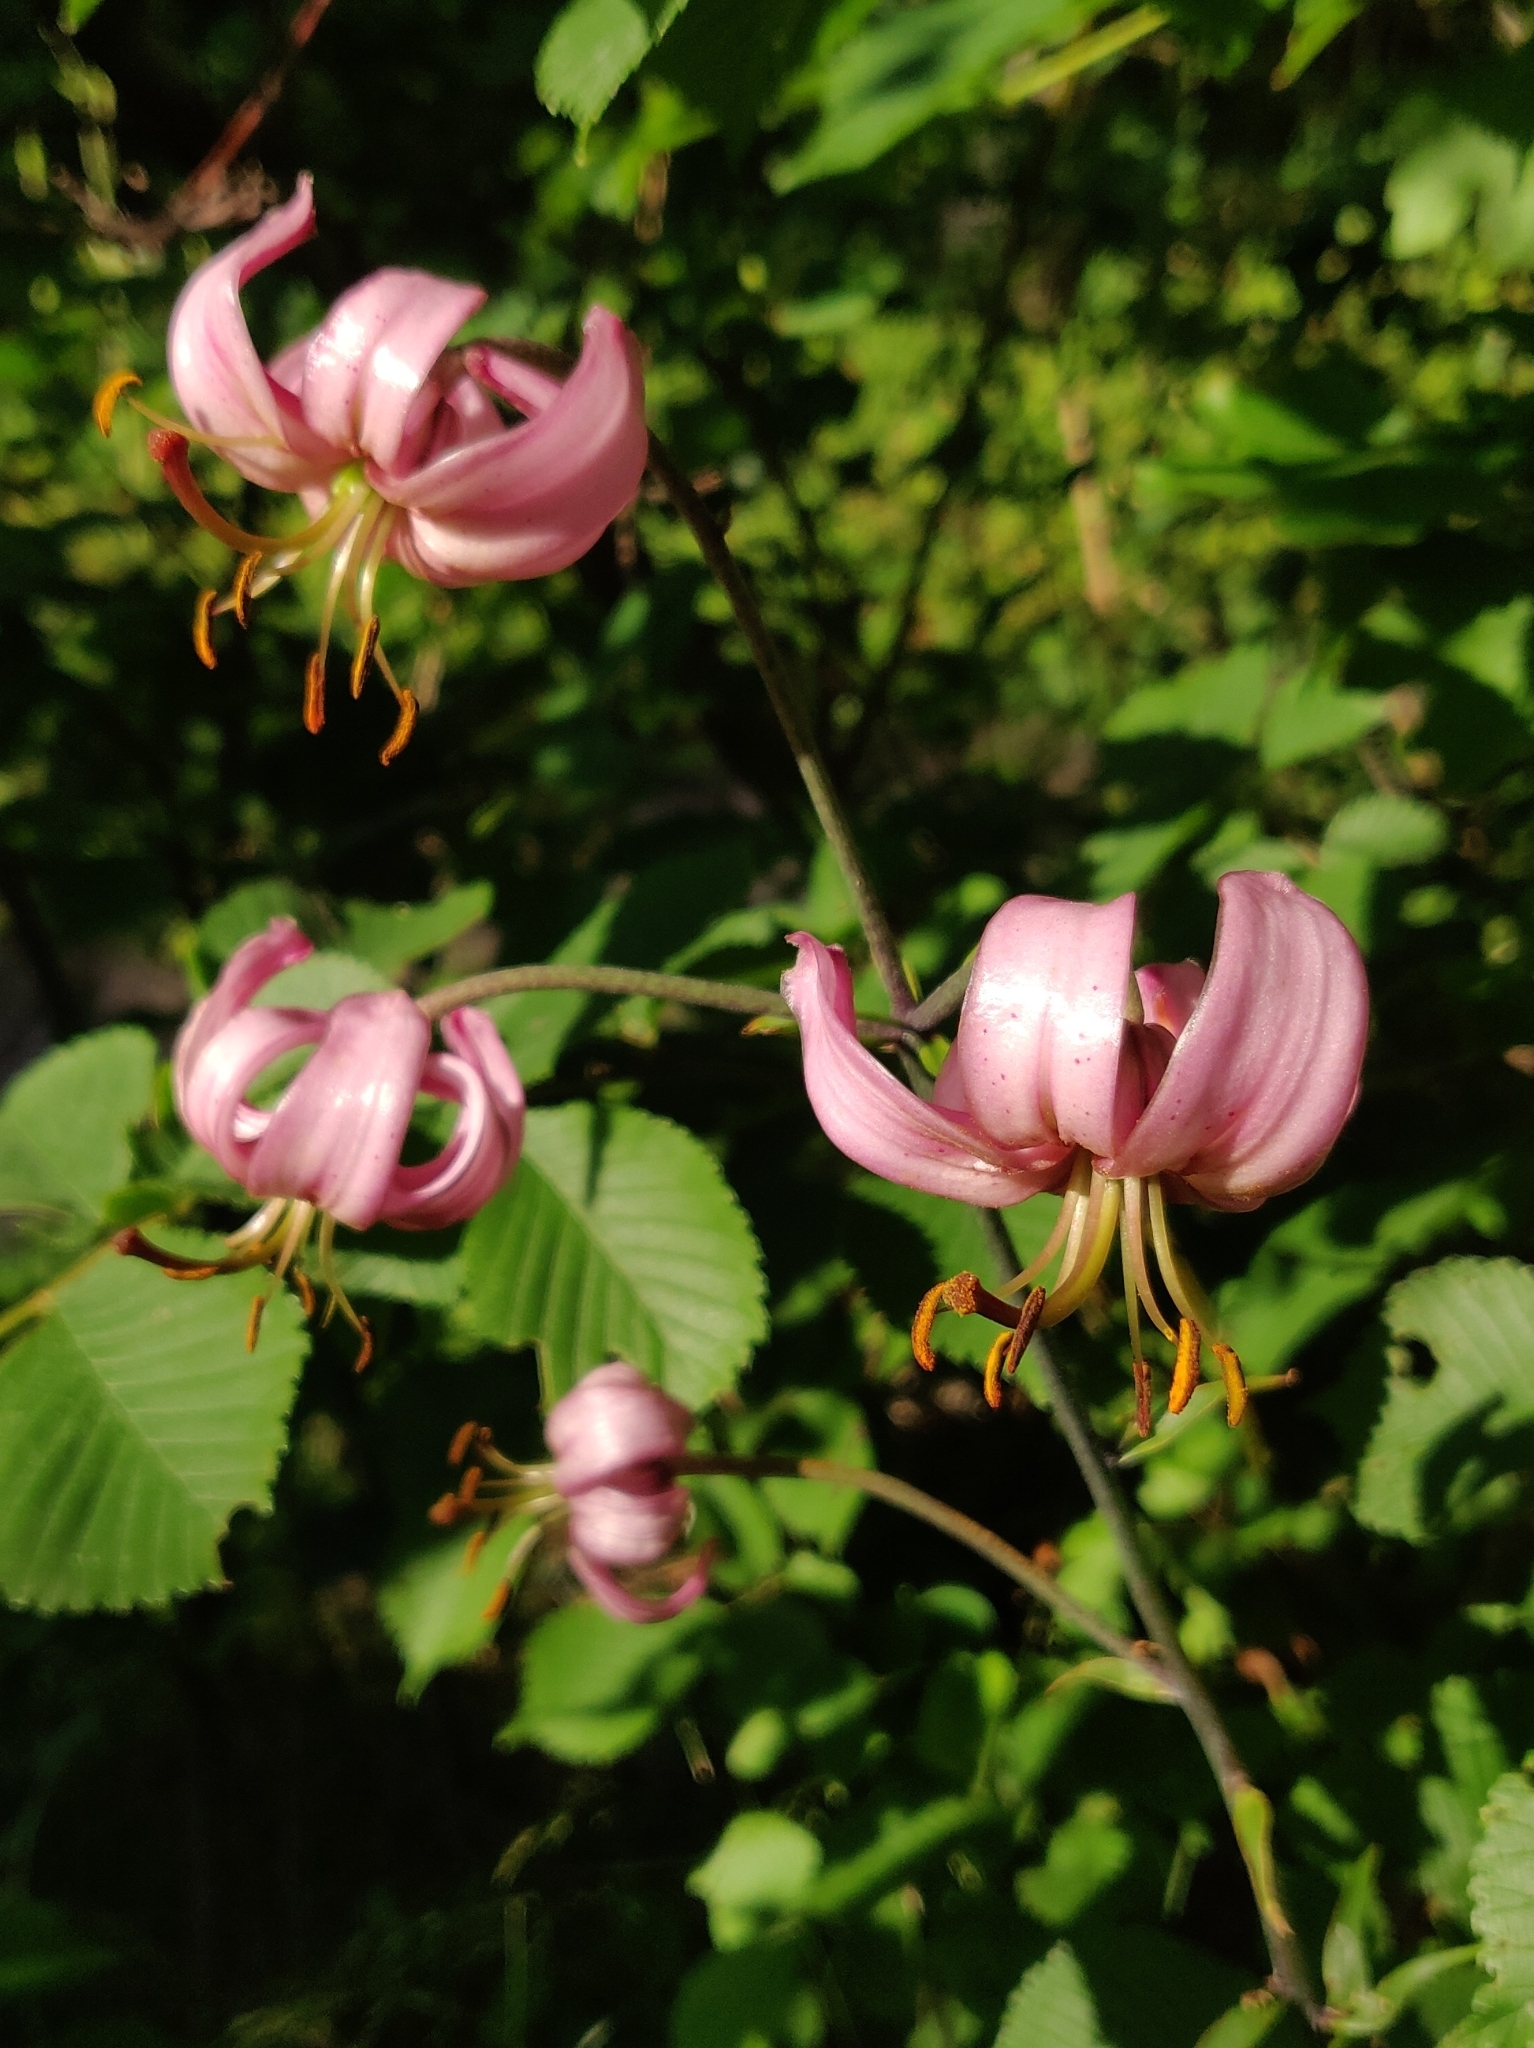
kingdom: Plantae
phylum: Tracheophyta
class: Liliopsida
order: Liliales
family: Liliaceae
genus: Lilium
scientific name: Lilium martagon
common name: Martagon lily
